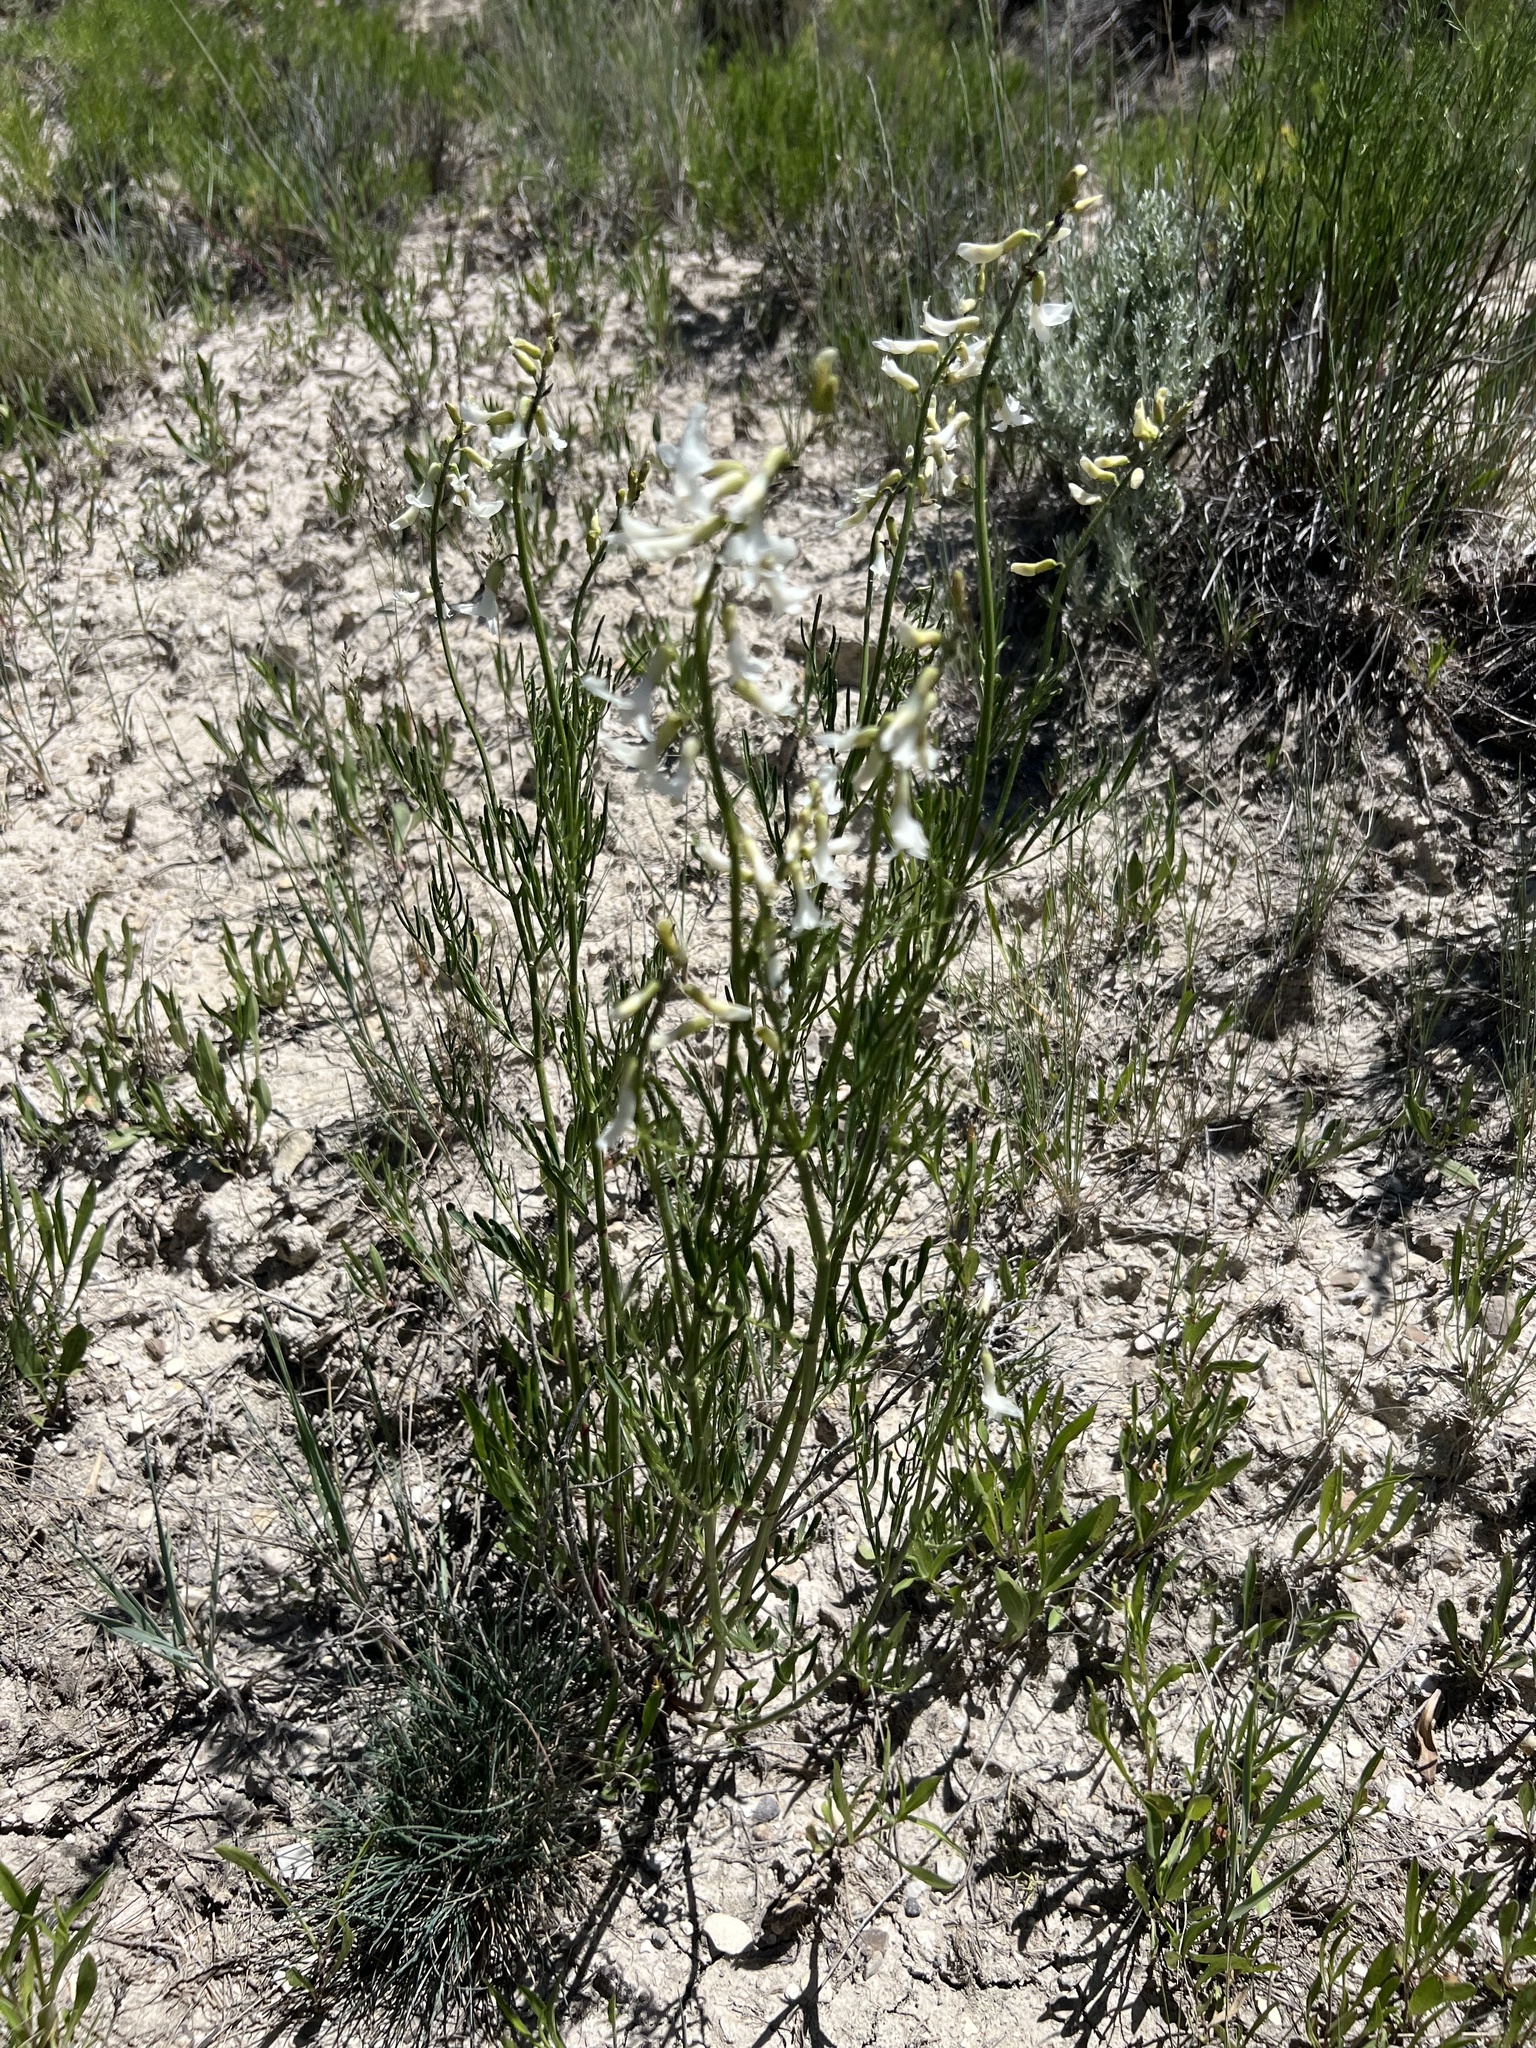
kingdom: Plantae
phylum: Tracheophyta
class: Magnoliopsida
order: Fabales
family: Fabaceae
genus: Astragalus
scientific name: Astragalus osterhoutii
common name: Osterhout's milk-vetch
